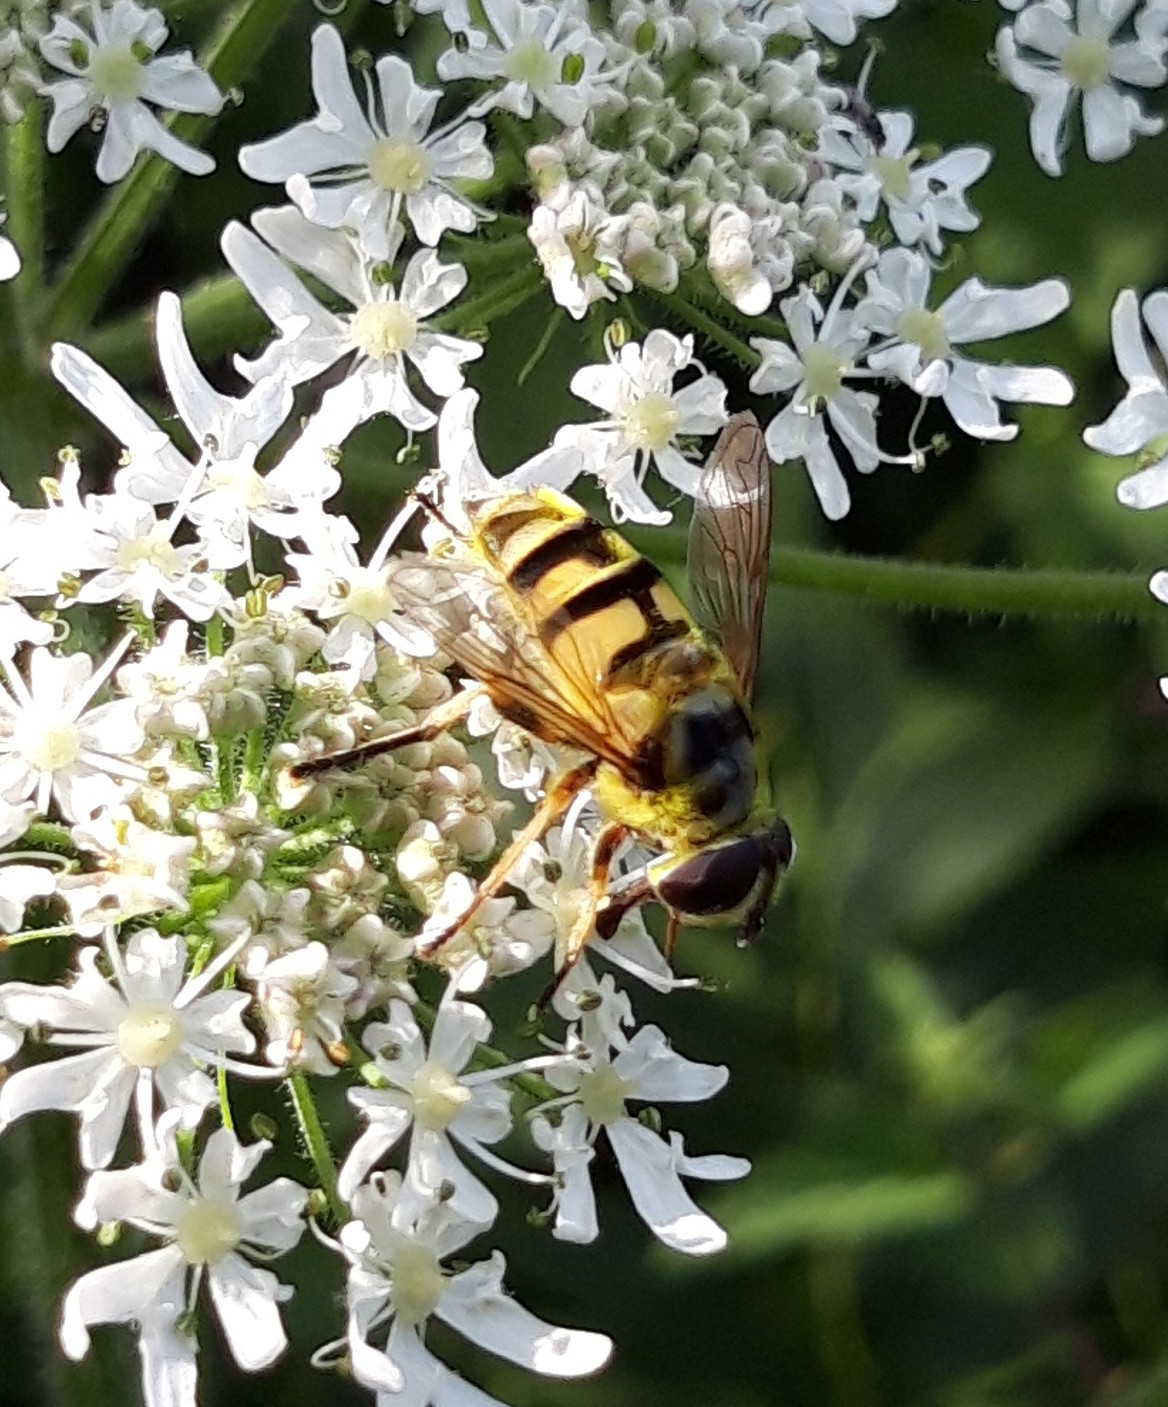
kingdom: Animalia
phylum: Arthropoda
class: Insecta
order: Diptera
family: Syrphidae
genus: Myathropa
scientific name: Myathropa florea
